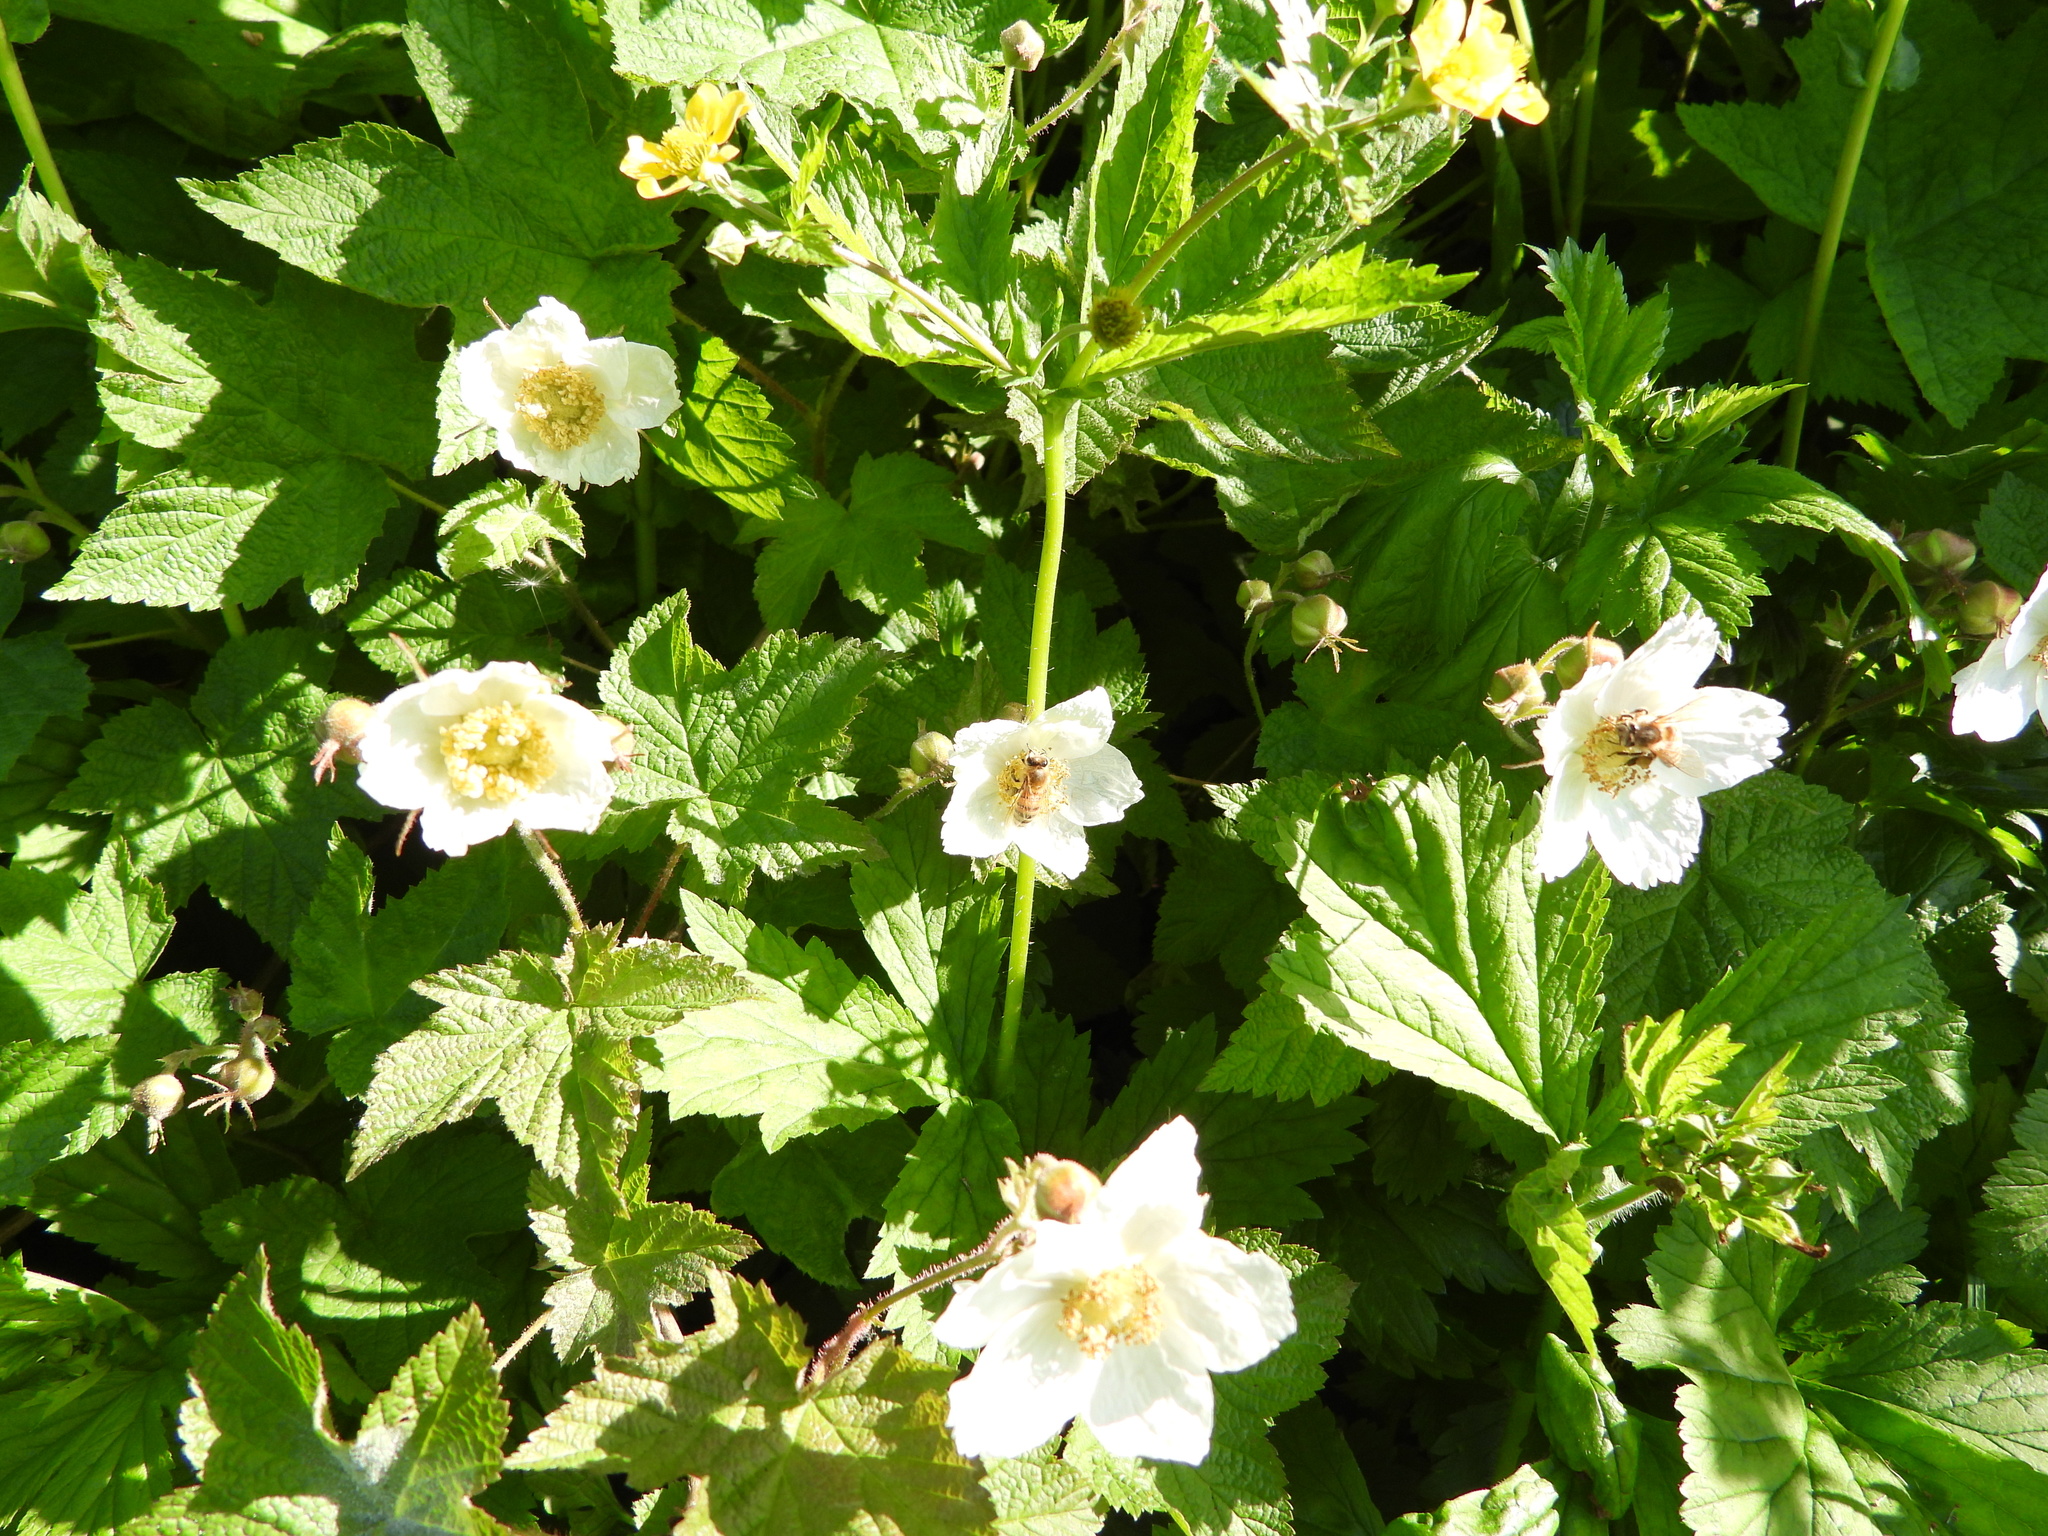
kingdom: Plantae
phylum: Tracheophyta
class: Magnoliopsida
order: Rosales
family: Rosaceae
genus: Rubus
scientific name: Rubus parviflorus
